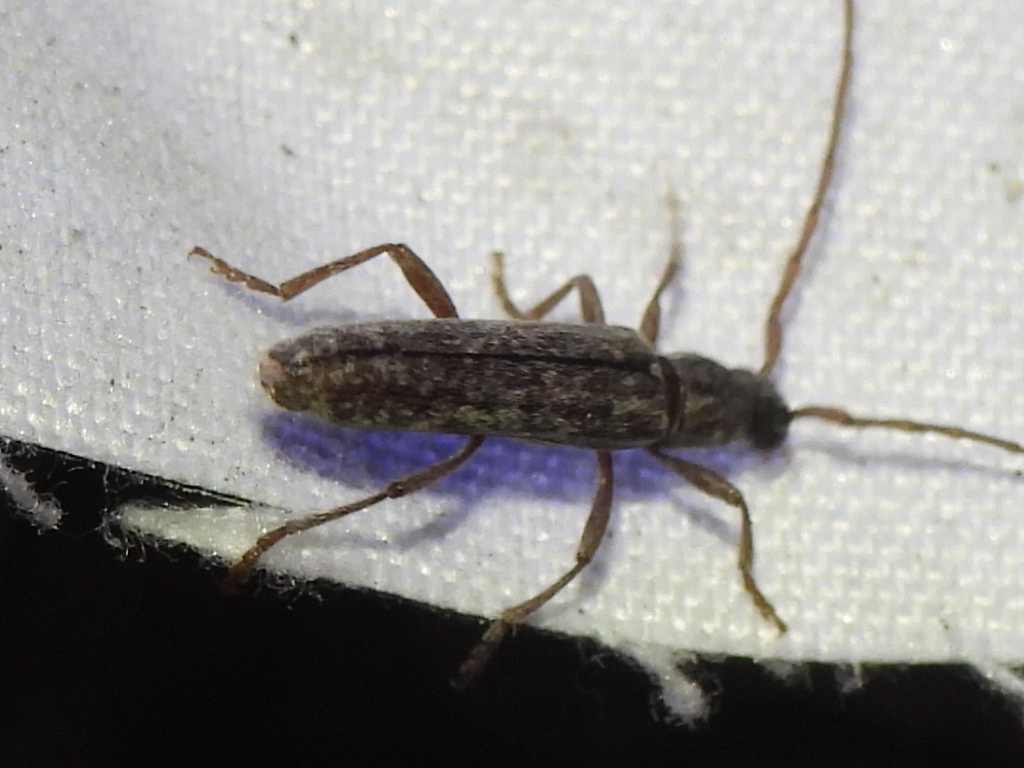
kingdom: Animalia
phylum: Arthropoda
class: Insecta
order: Coleoptera
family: Cerambycidae
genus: Anelaphus
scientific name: Anelaphus villosus
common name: Twig pruner
